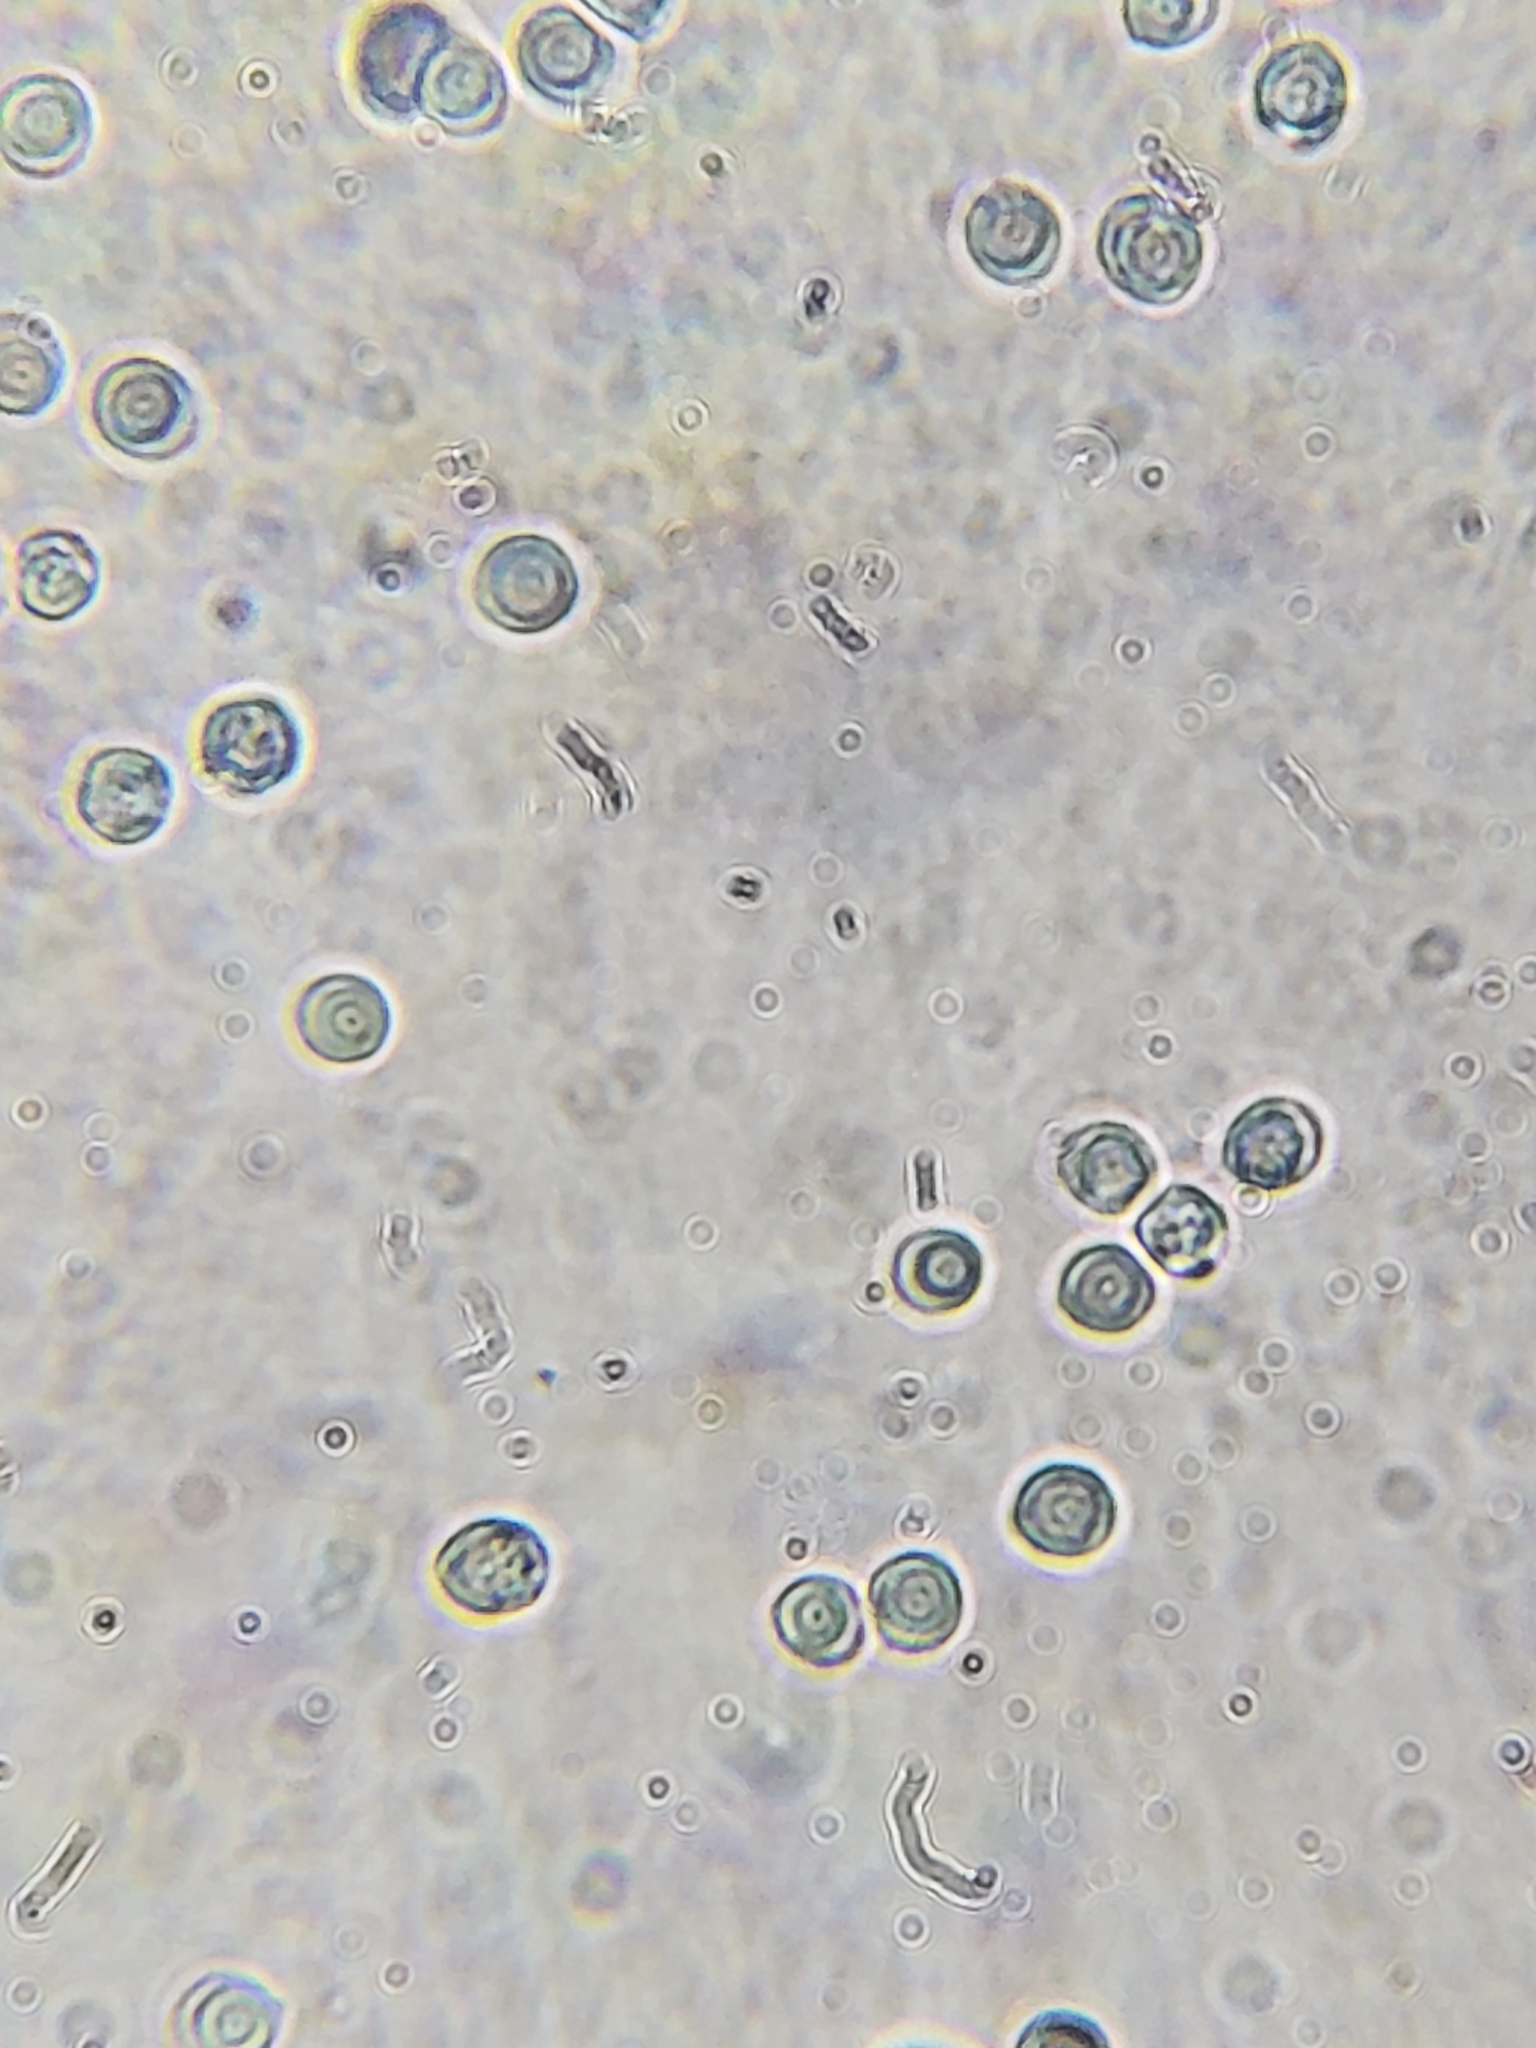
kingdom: Fungi
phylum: Basidiomycota
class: Agaricomycetes
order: Polyporales
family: Meripilaceae
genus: Meripilus
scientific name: Meripilus sumstinei
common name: Black-staining polypore
